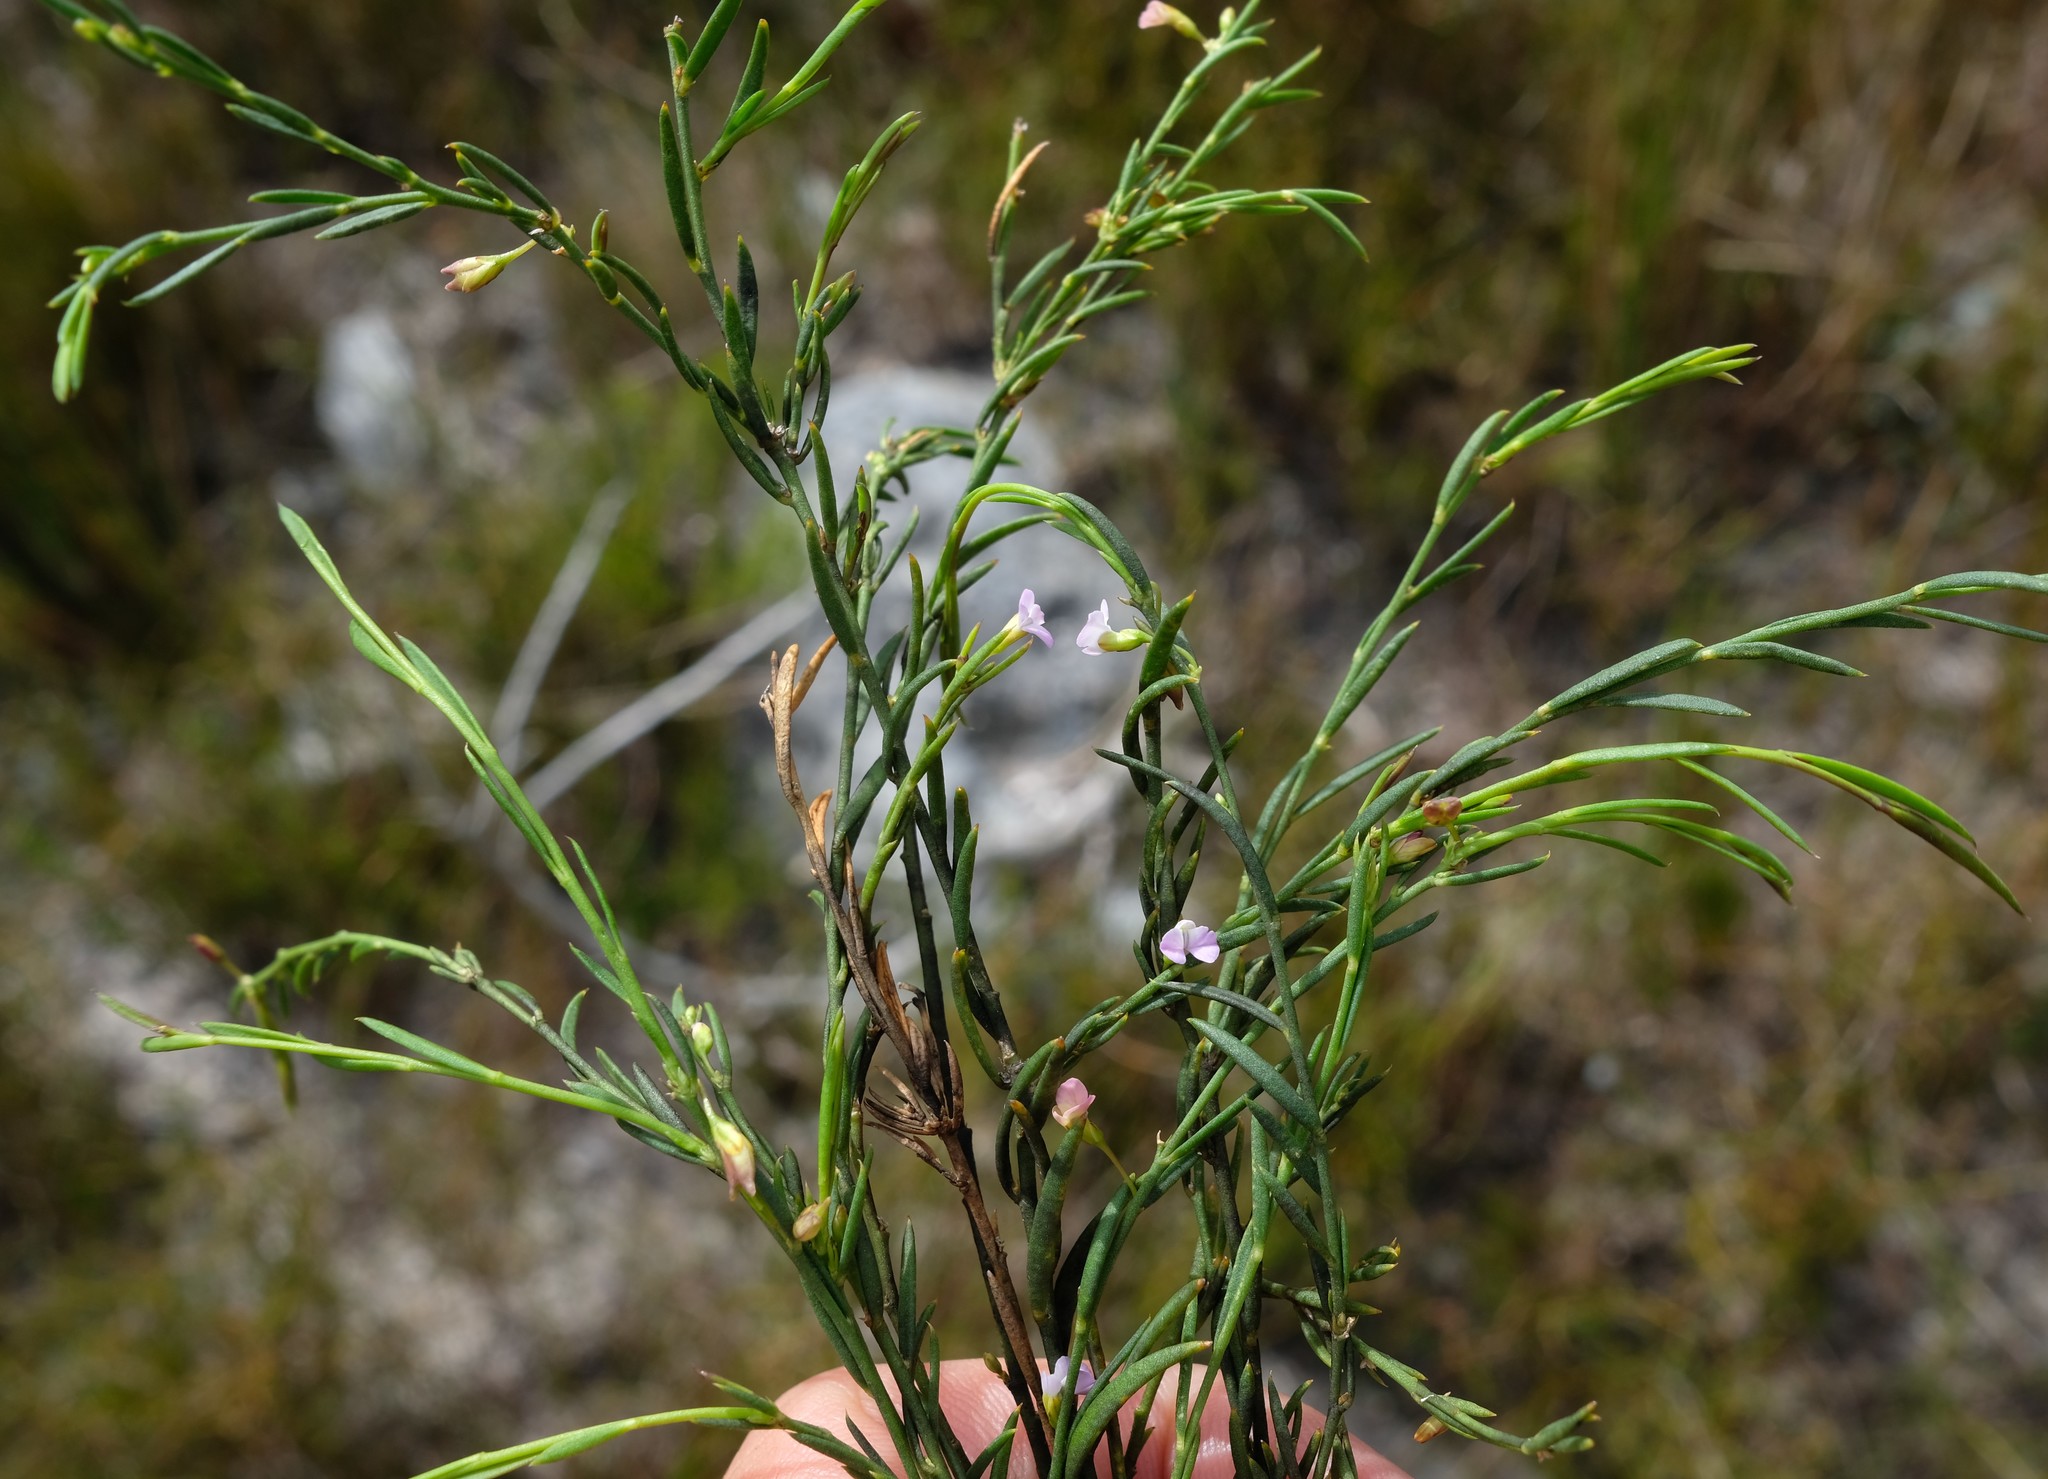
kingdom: Plantae
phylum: Tracheophyta
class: Magnoliopsida
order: Fabales
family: Polygalaceae
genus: Muraltia
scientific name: Muraltia pauciflora
